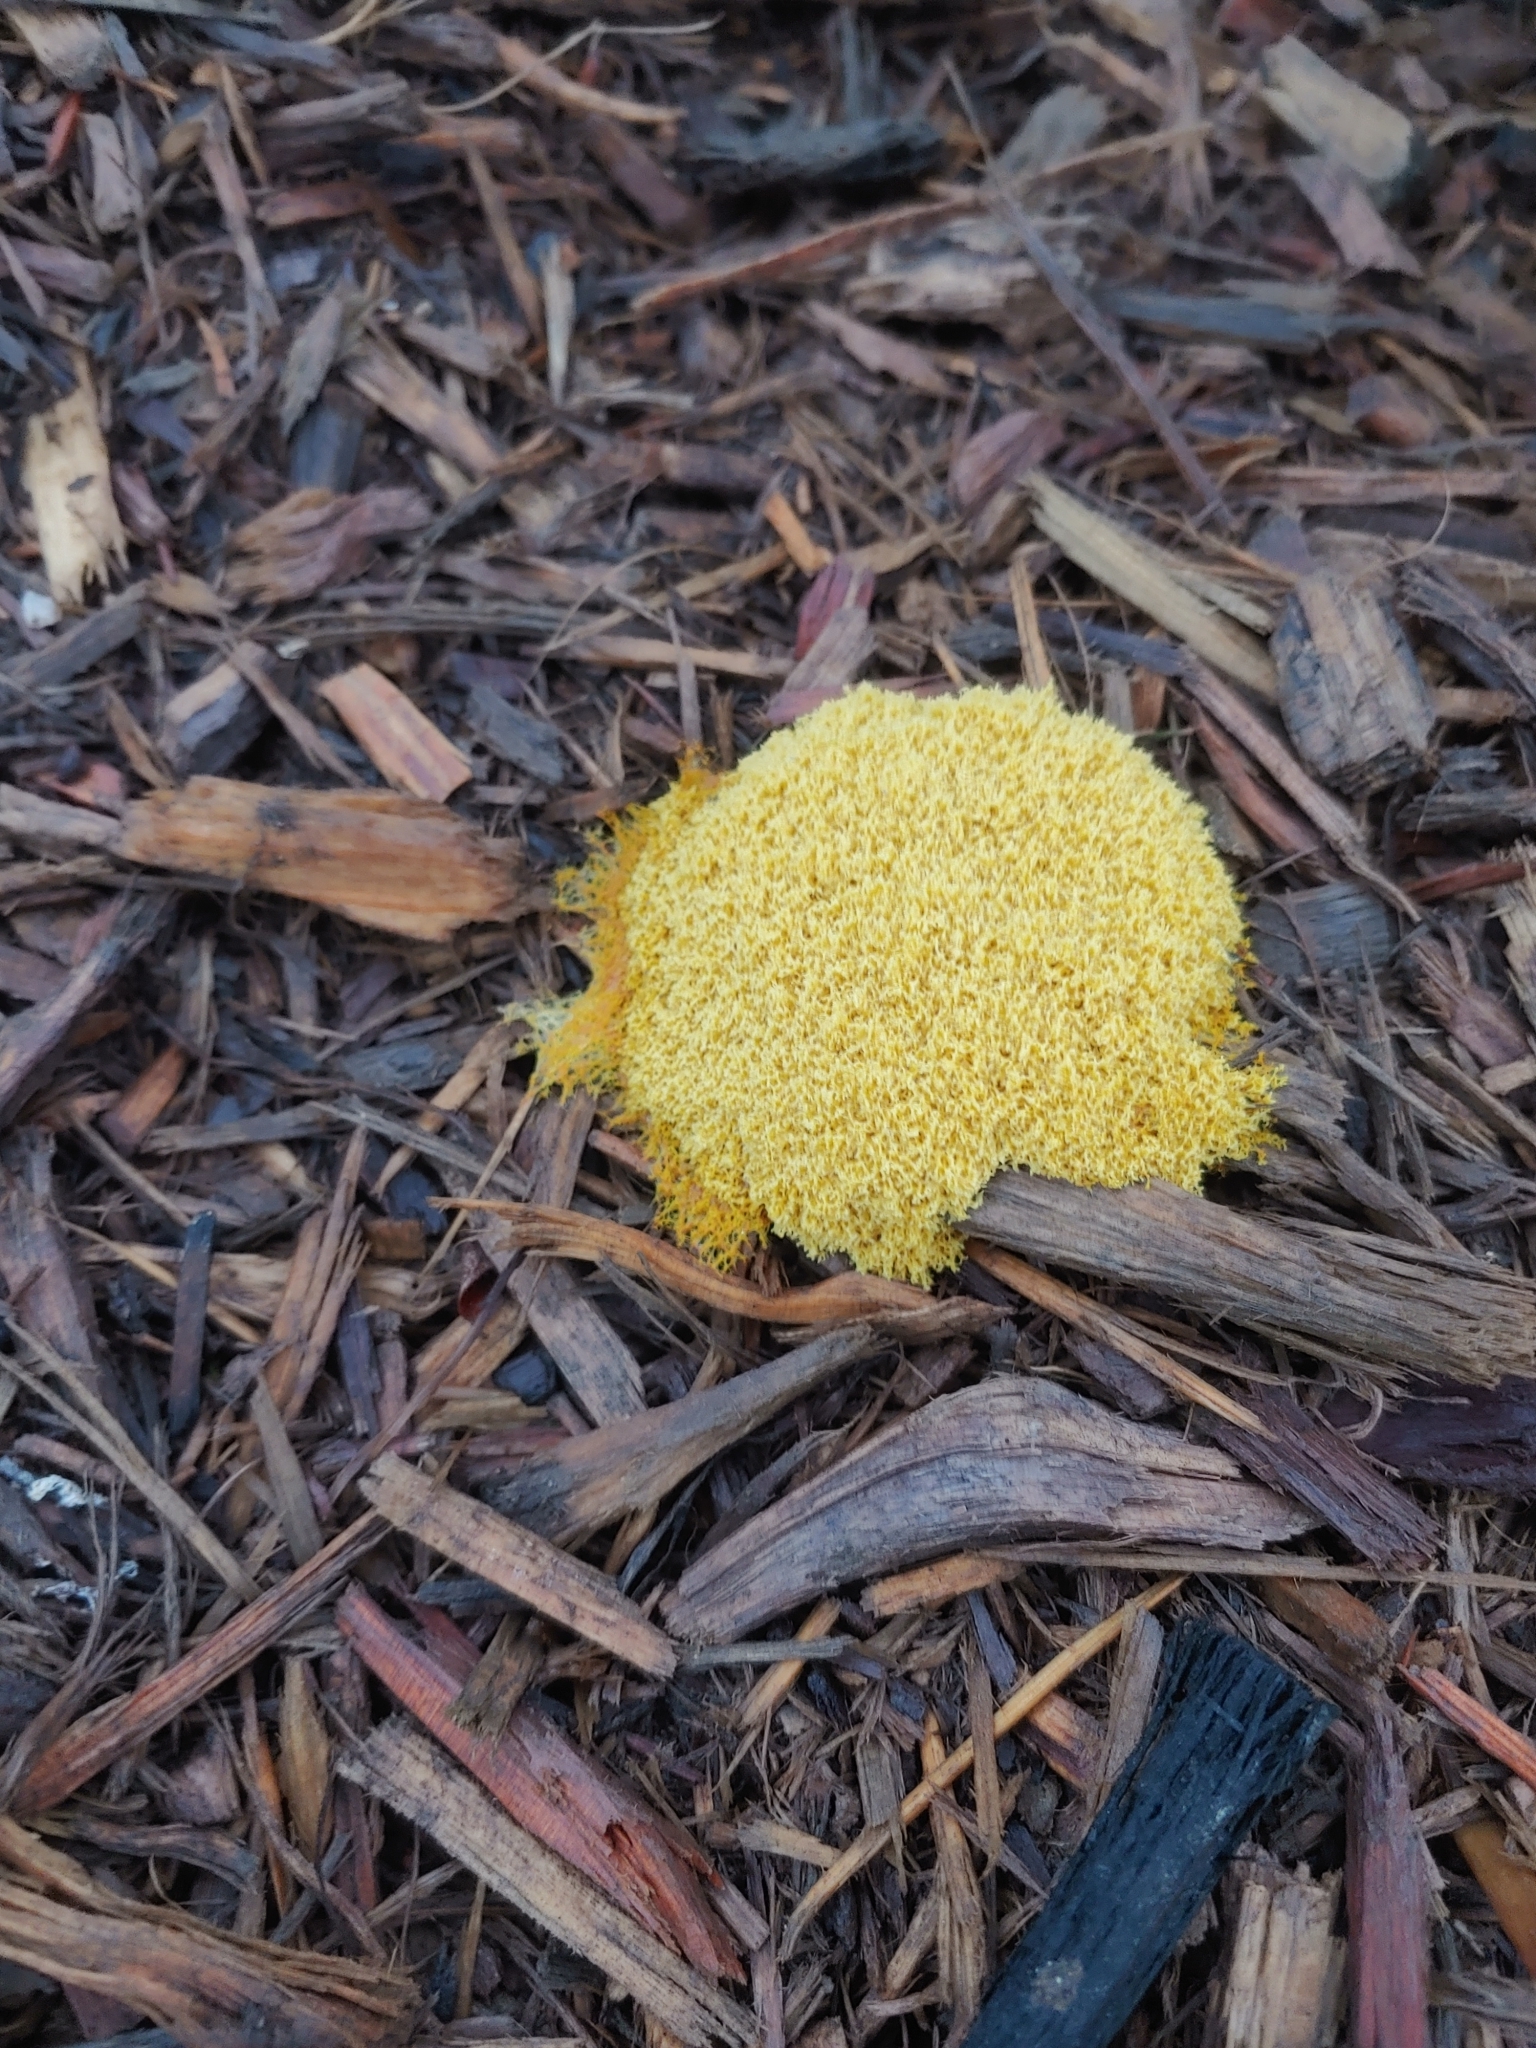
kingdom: Protozoa
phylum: Mycetozoa
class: Myxomycetes
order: Physarales
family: Physaraceae
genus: Fuligo
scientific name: Fuligo septica
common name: Dog vomit slime mold
